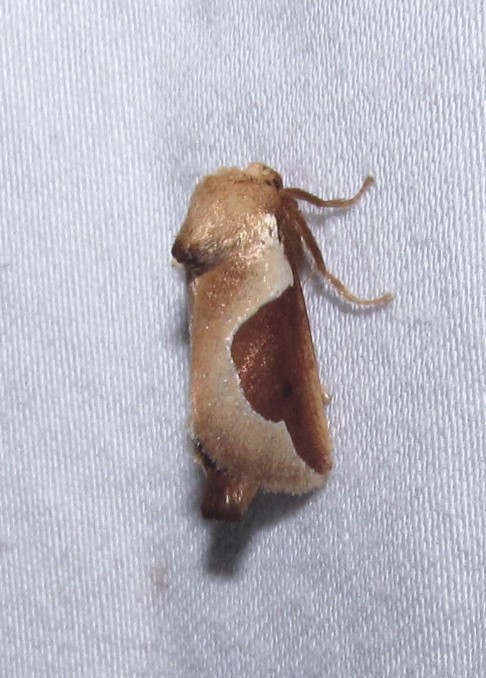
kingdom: Animalia
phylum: Arthropoda
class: Insecta
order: Lepidoptera
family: Limacodidae
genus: Prolimacodes
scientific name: Prolimacodes badia
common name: Skiff moth
